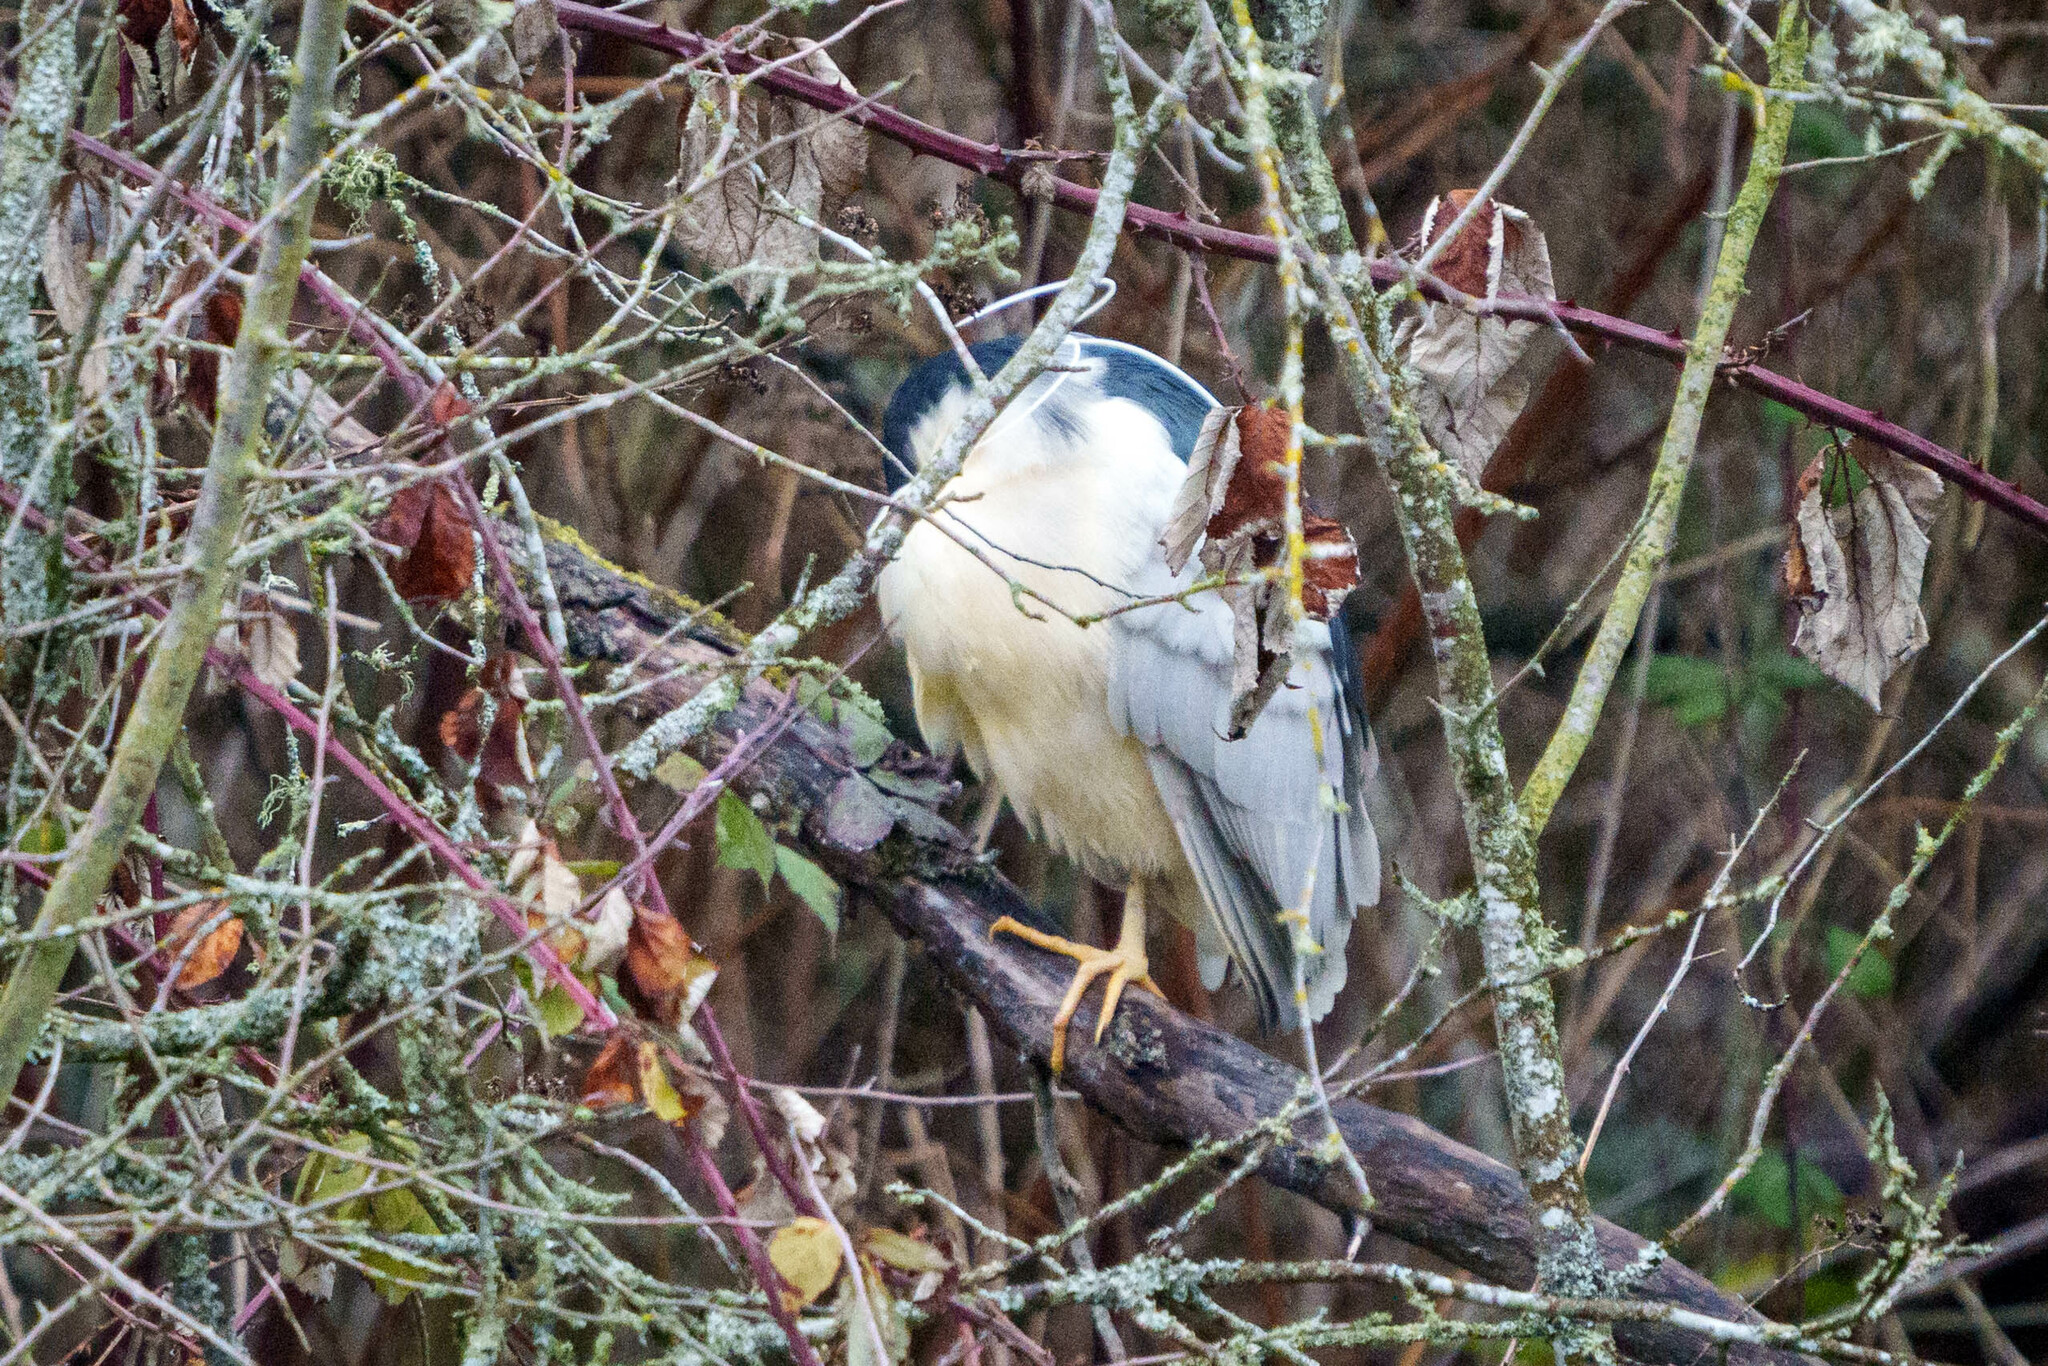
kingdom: Animalia
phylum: Chordata
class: Aves
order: Pelecaniformes
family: Ardeidae
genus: Nycticorax
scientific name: Nycticorax nycticorax
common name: Black-crowned night heron
